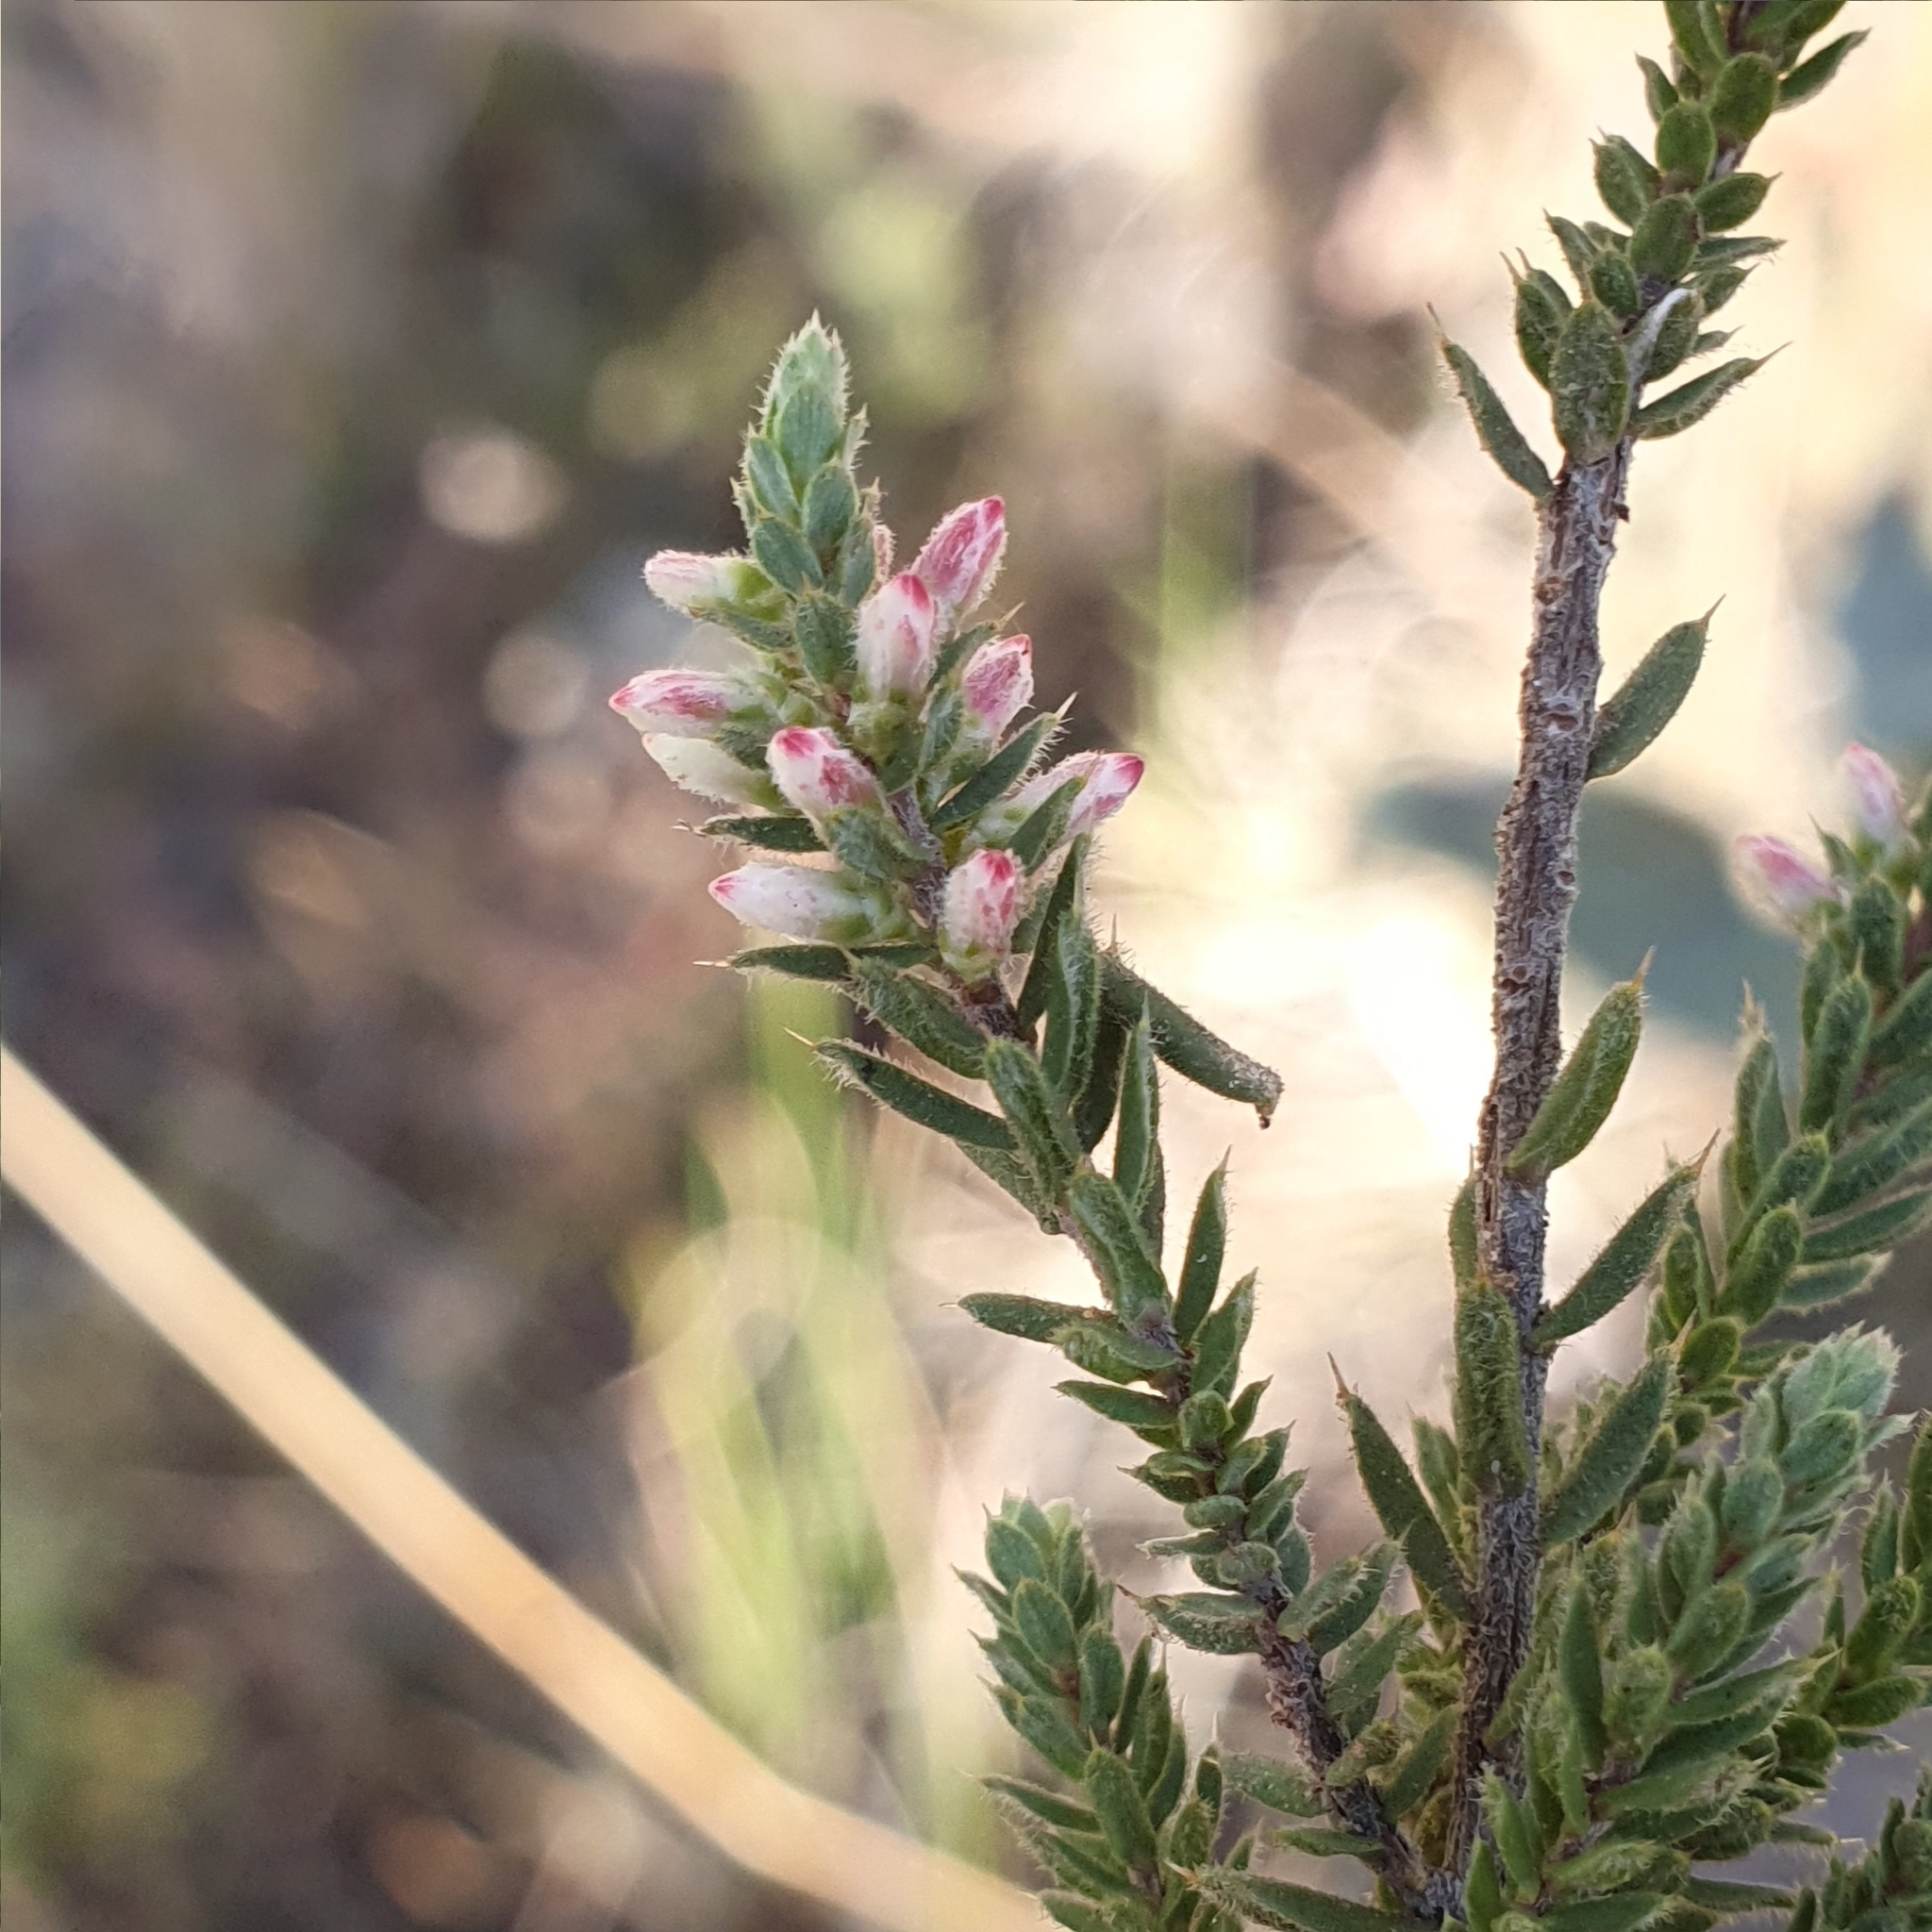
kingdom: Plantae
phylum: Tracheophyta
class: Magnoliopsida
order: Ericales
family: Ericaceae
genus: Styphelia
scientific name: Styphelia attenuata
